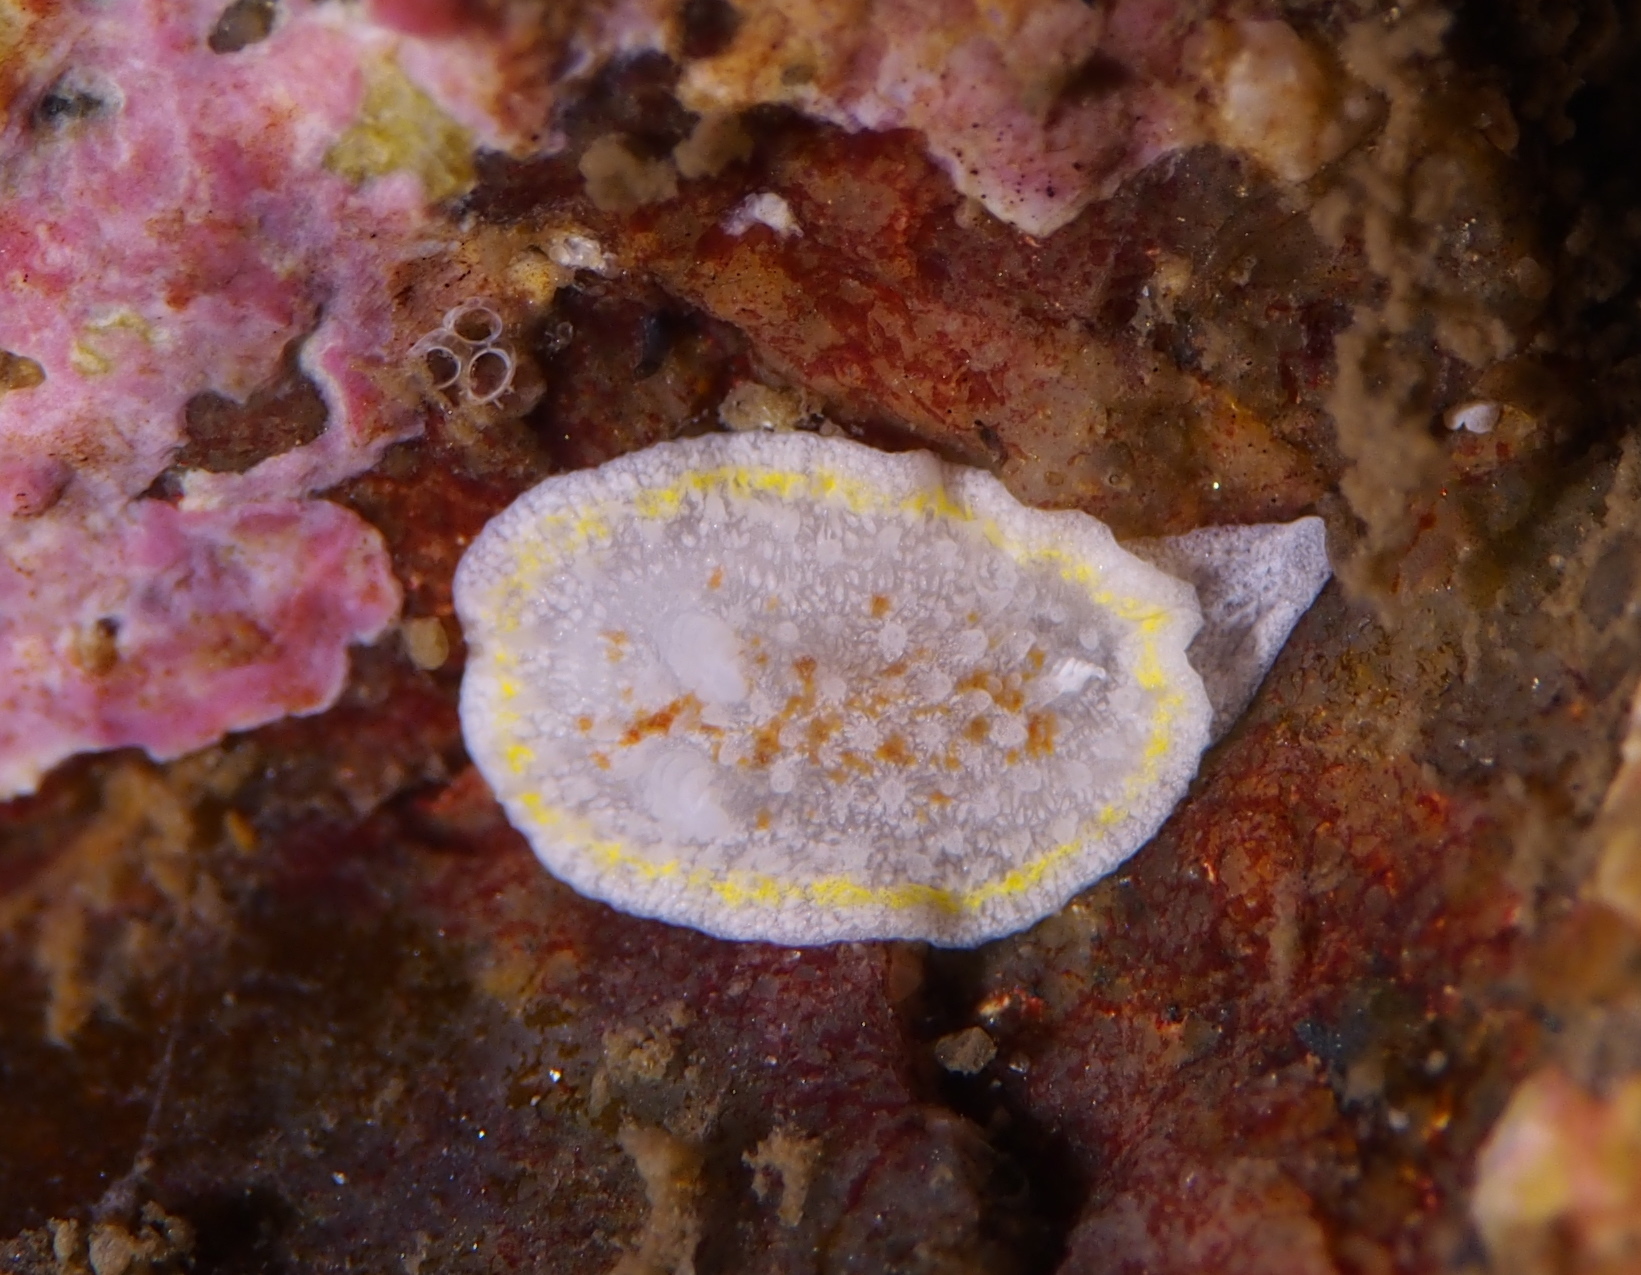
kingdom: Animalia
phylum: Mollusca
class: Gastropoda
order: Nudibranchia
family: Calycidorididae
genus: Diaphorodoris
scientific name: Diaphorodoris luteocincta
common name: Fried egg nudibranch
